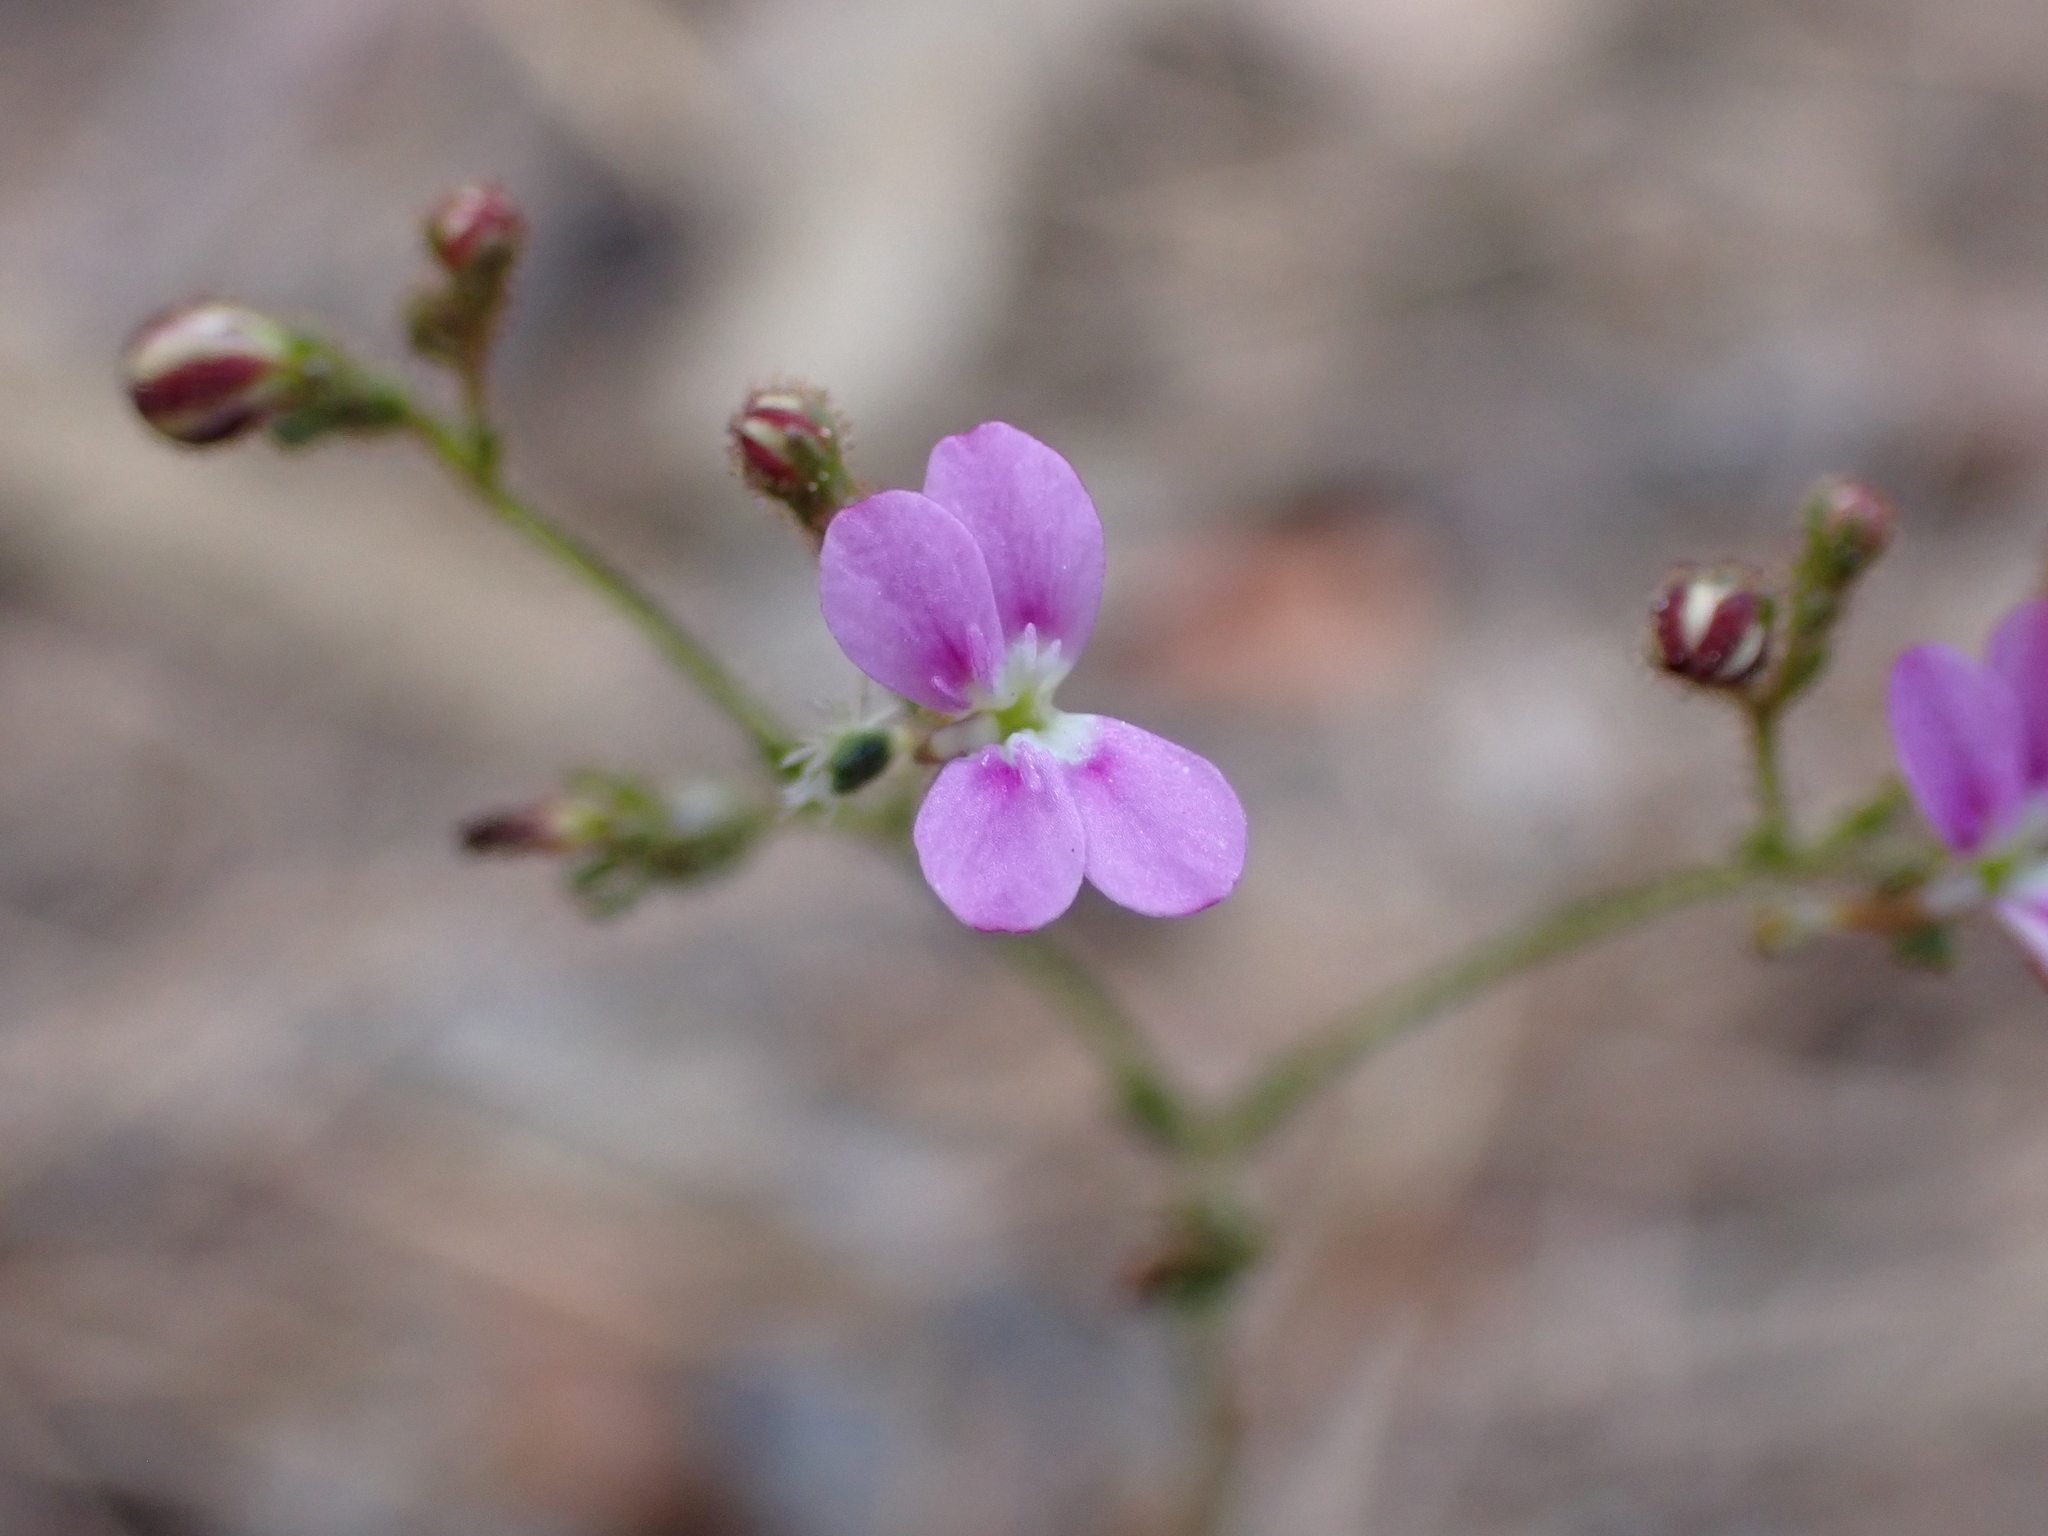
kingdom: Plantae
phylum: Tracheophyta
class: Magnoliopsida
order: Asterales
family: Stylidiaceae
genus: Stylidium
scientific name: Stylidium multiscapum
